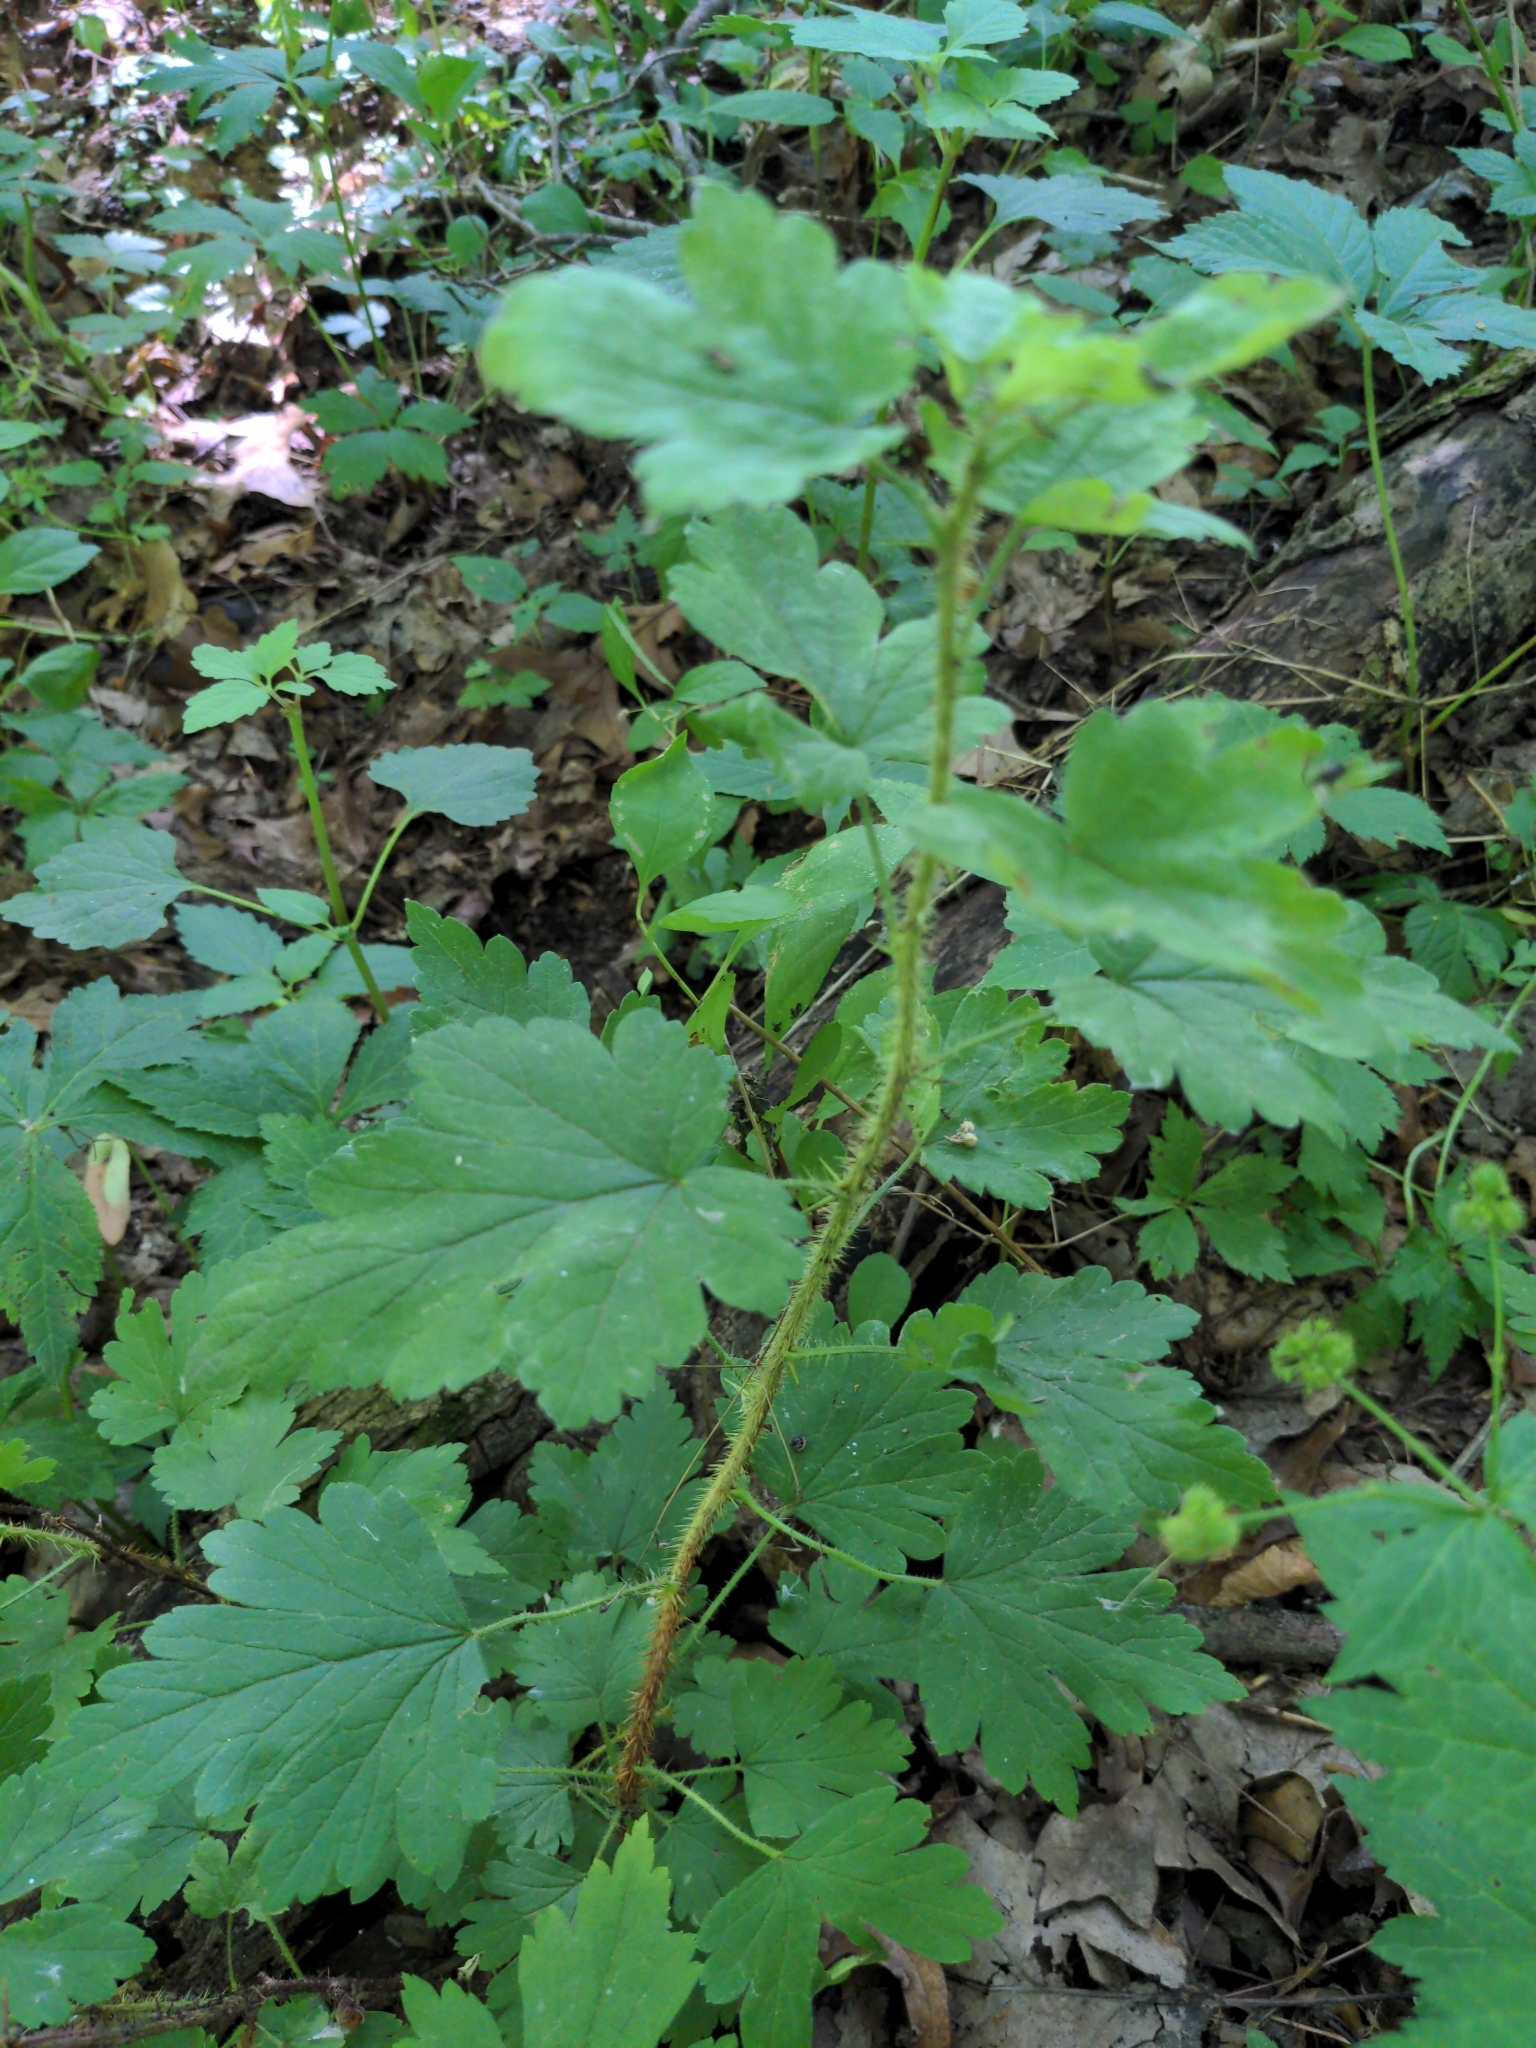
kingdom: Plantae
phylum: Tracheophyta
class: Magnoliopsida
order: Saxifragales
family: Grossulariaceae
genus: Ribes
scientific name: Ribes cynosbati
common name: American gooseberry
